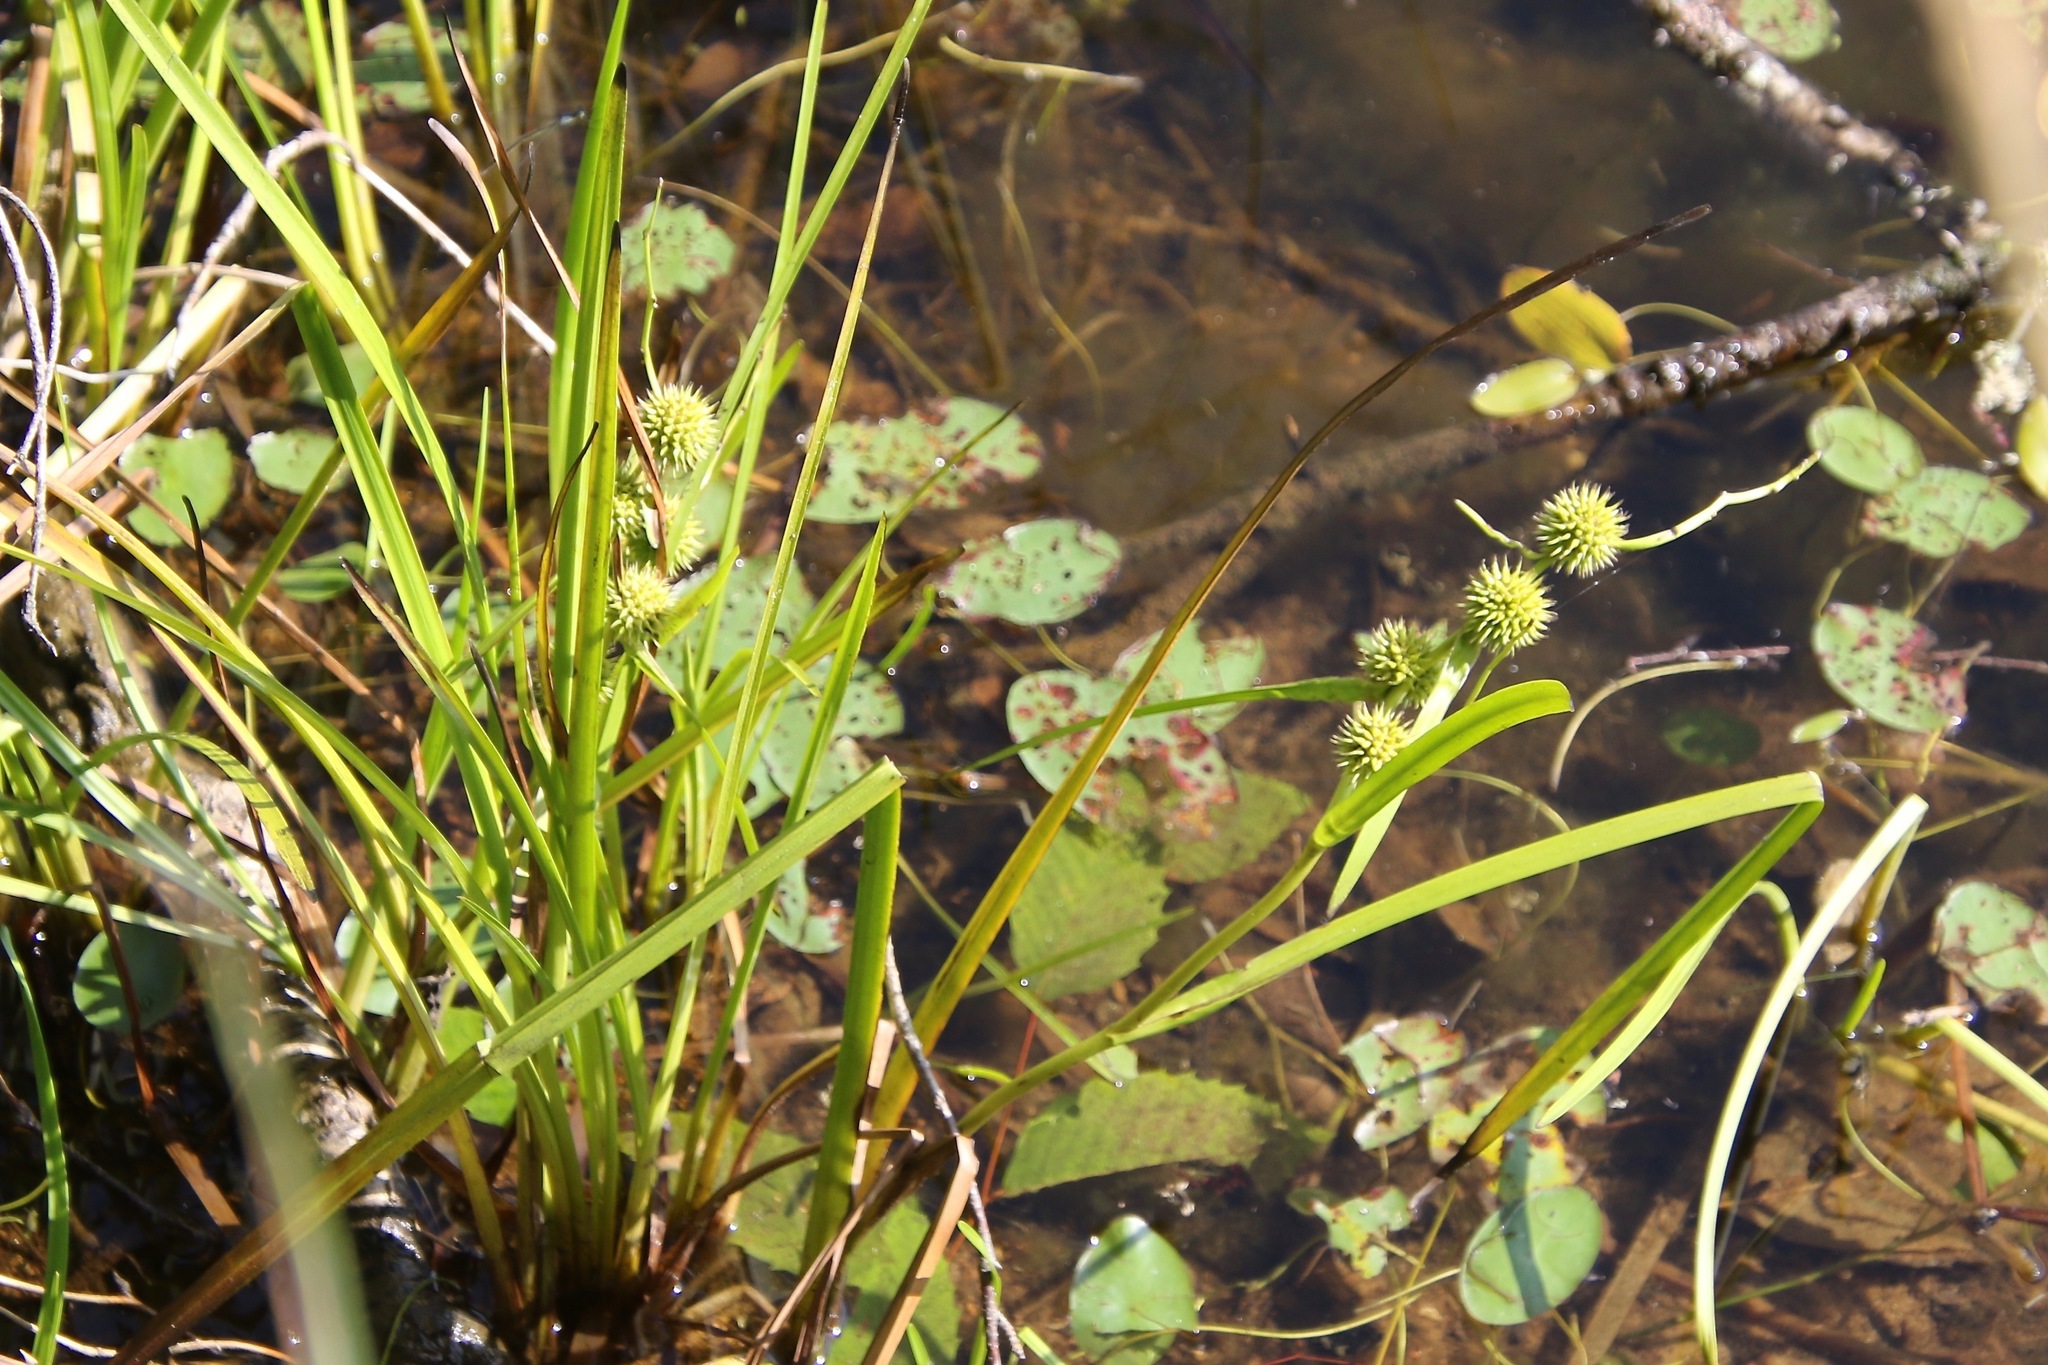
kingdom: Plantae
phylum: Tracheophyta
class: Liliopsida
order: Poales
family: Typhaceae
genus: Sparganium
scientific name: Sparganium emersum
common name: Unbranched bur-reed
